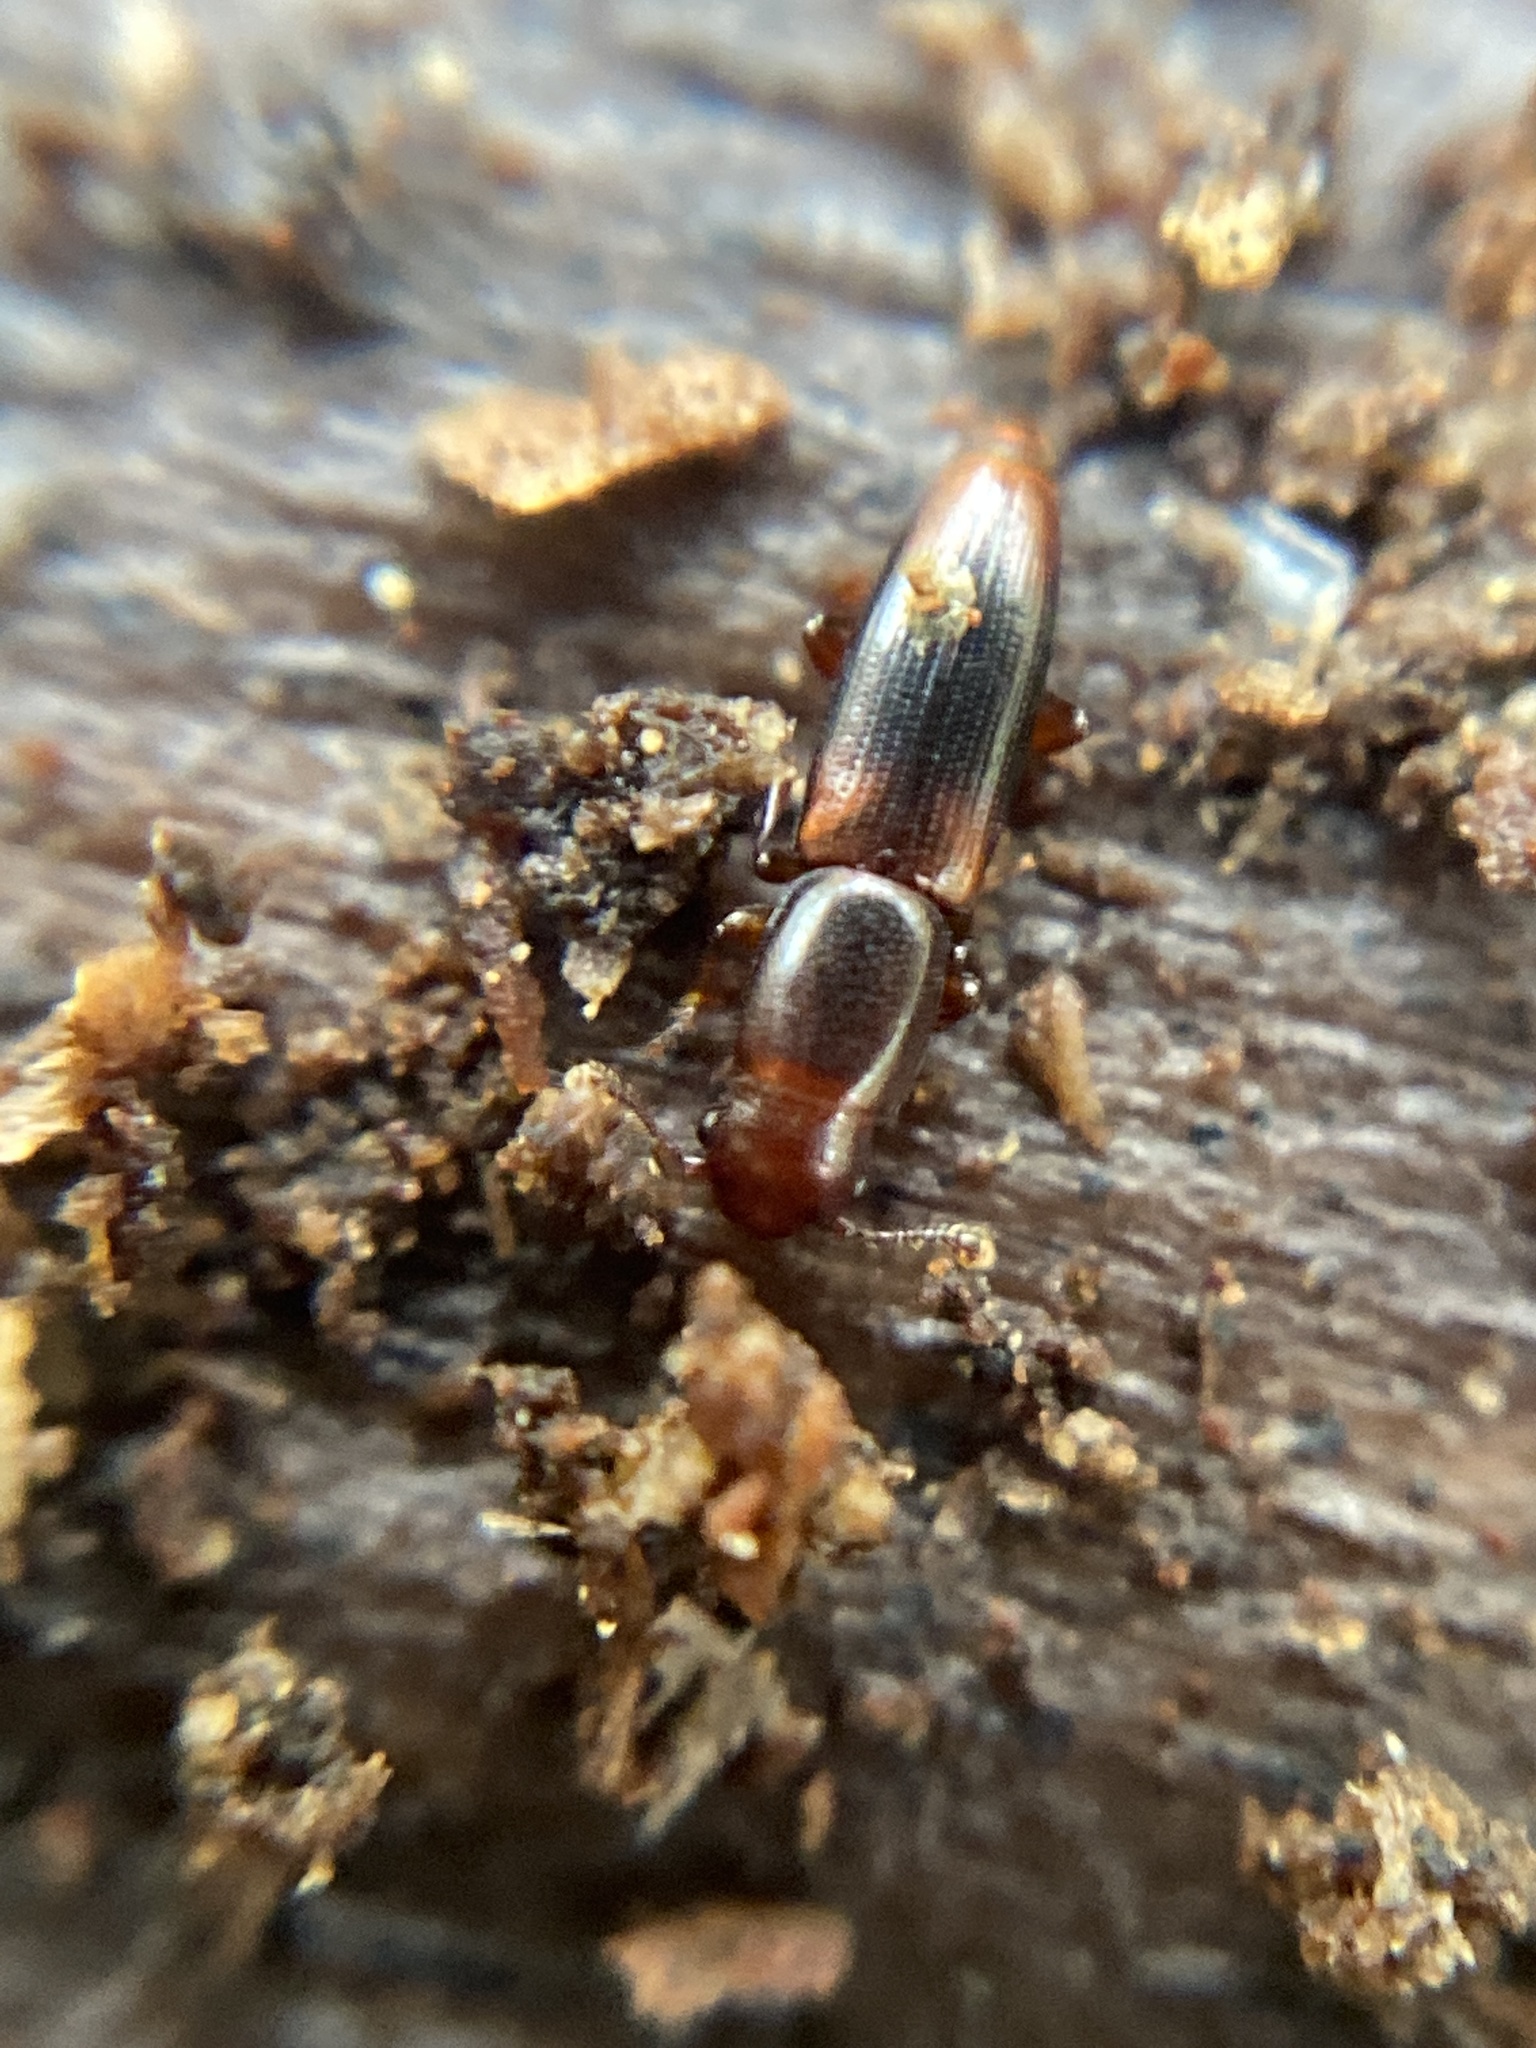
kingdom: Animalia
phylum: Arthropoda
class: Insecta
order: Coleoptera
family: Monotomidae
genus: Rhizophagus
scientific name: Rhizophagus dispar
